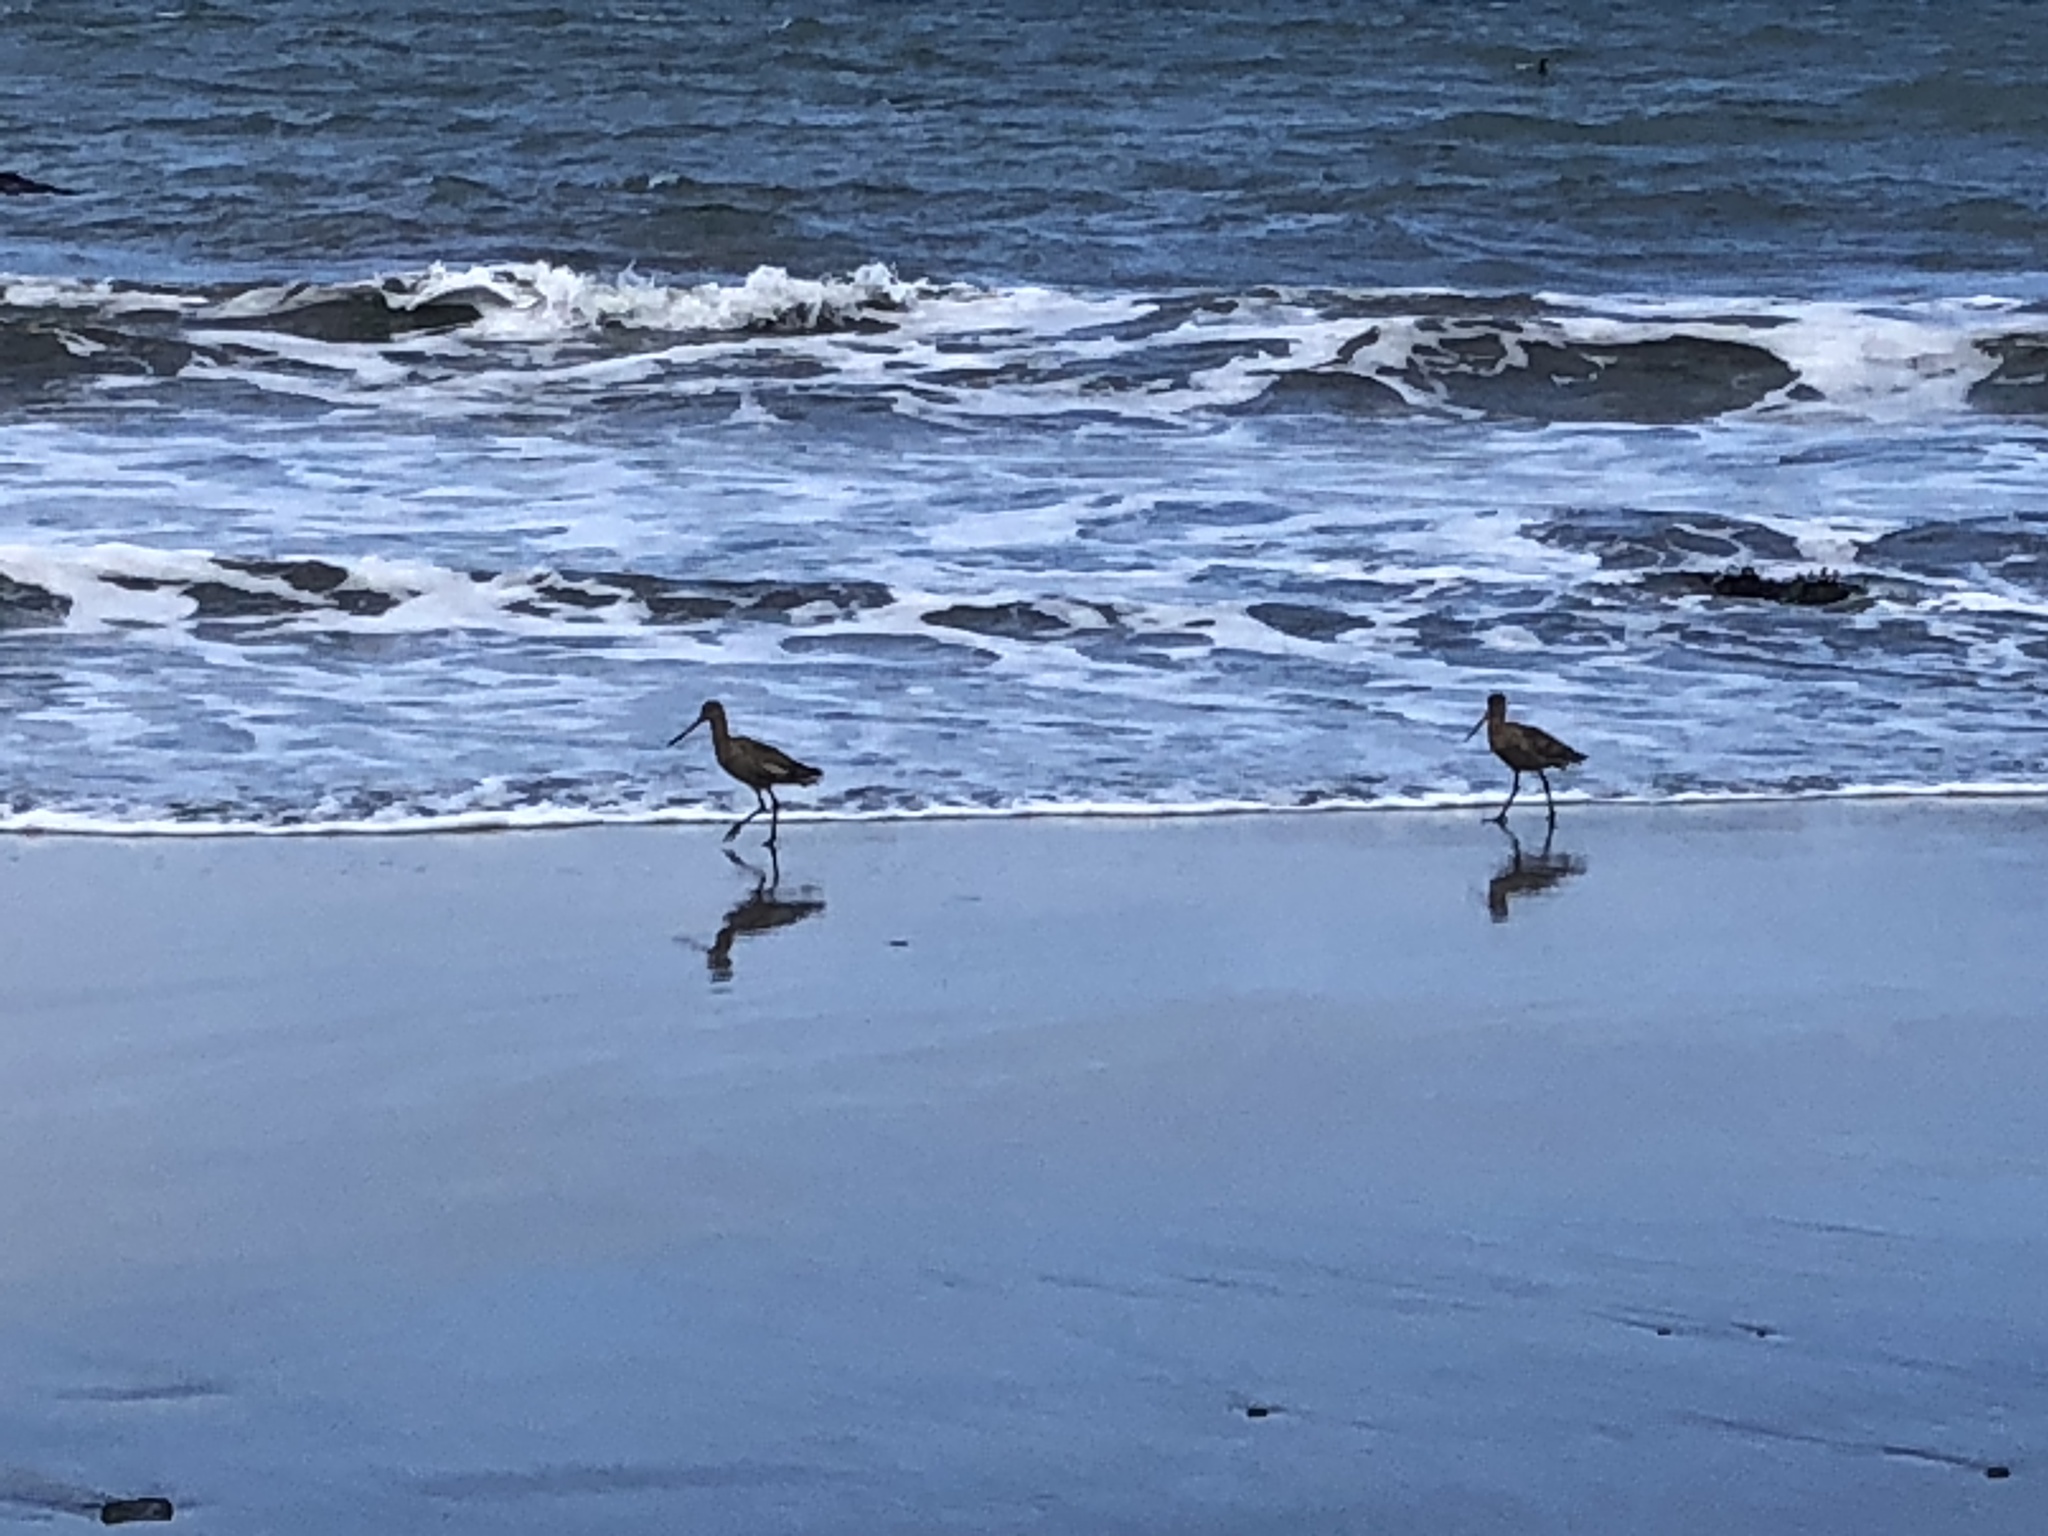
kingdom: Animalia
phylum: Chordata
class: Aves
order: Charadriiformes
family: Scolopacidae
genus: Limosa
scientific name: Limosa fedoa
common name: Marbled godwit
